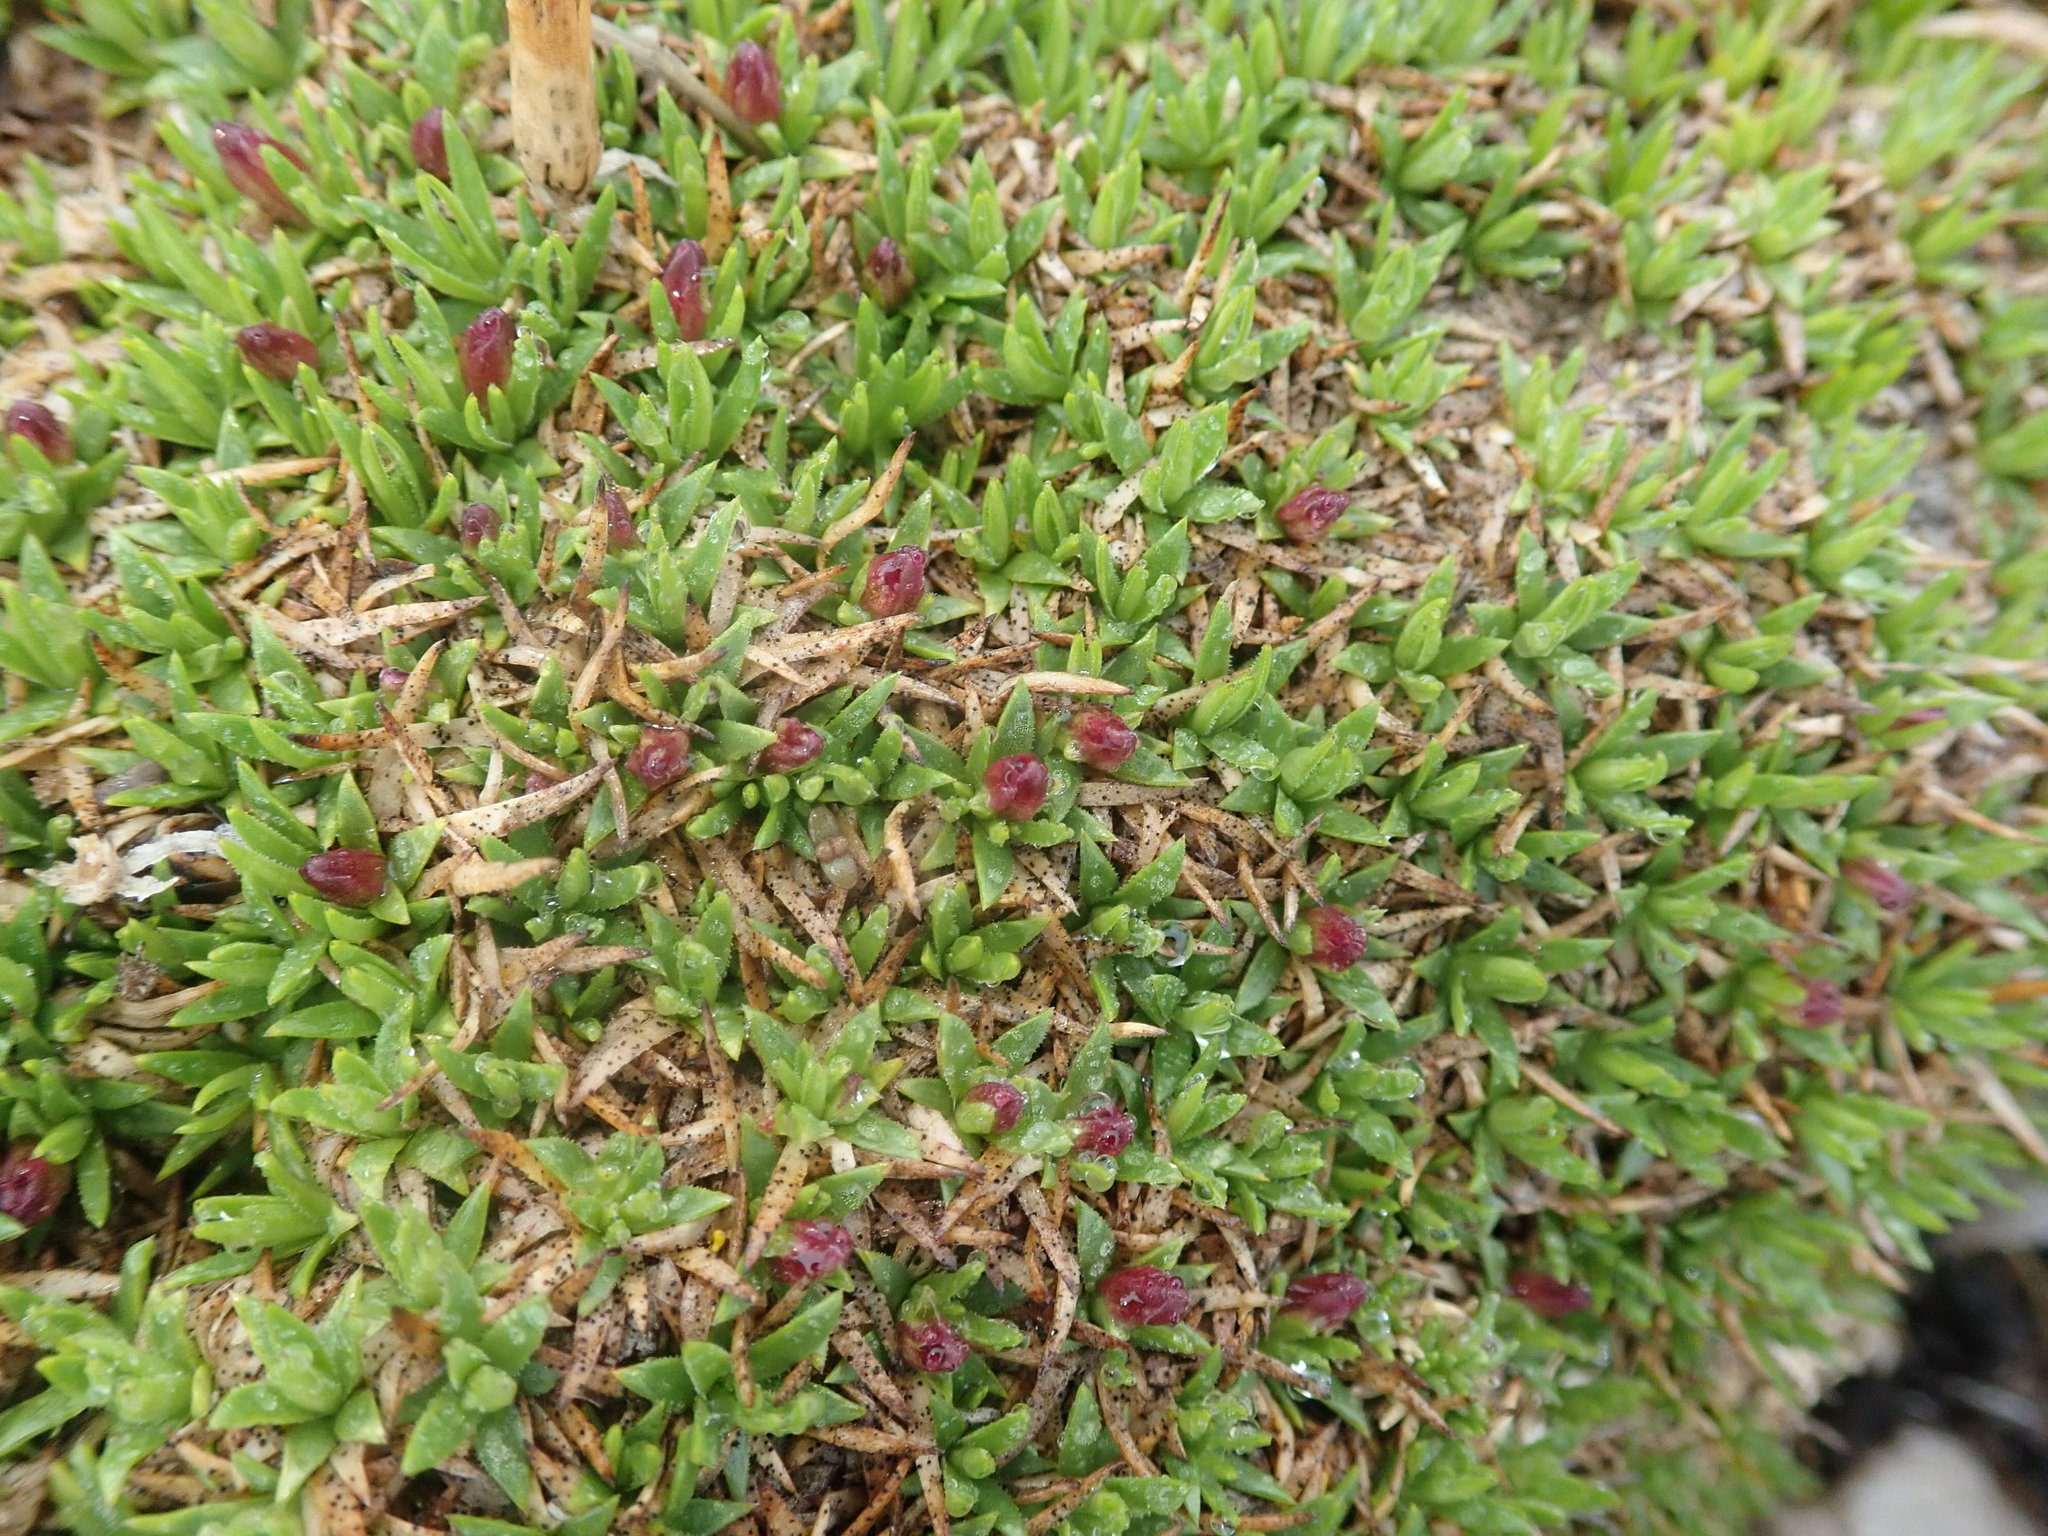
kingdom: Plantae
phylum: Tracheophyta
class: Magnoliopsida
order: Caryophyllales
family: Caryophyllaceae
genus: Silene
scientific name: Silene acaulis
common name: Moss campion
